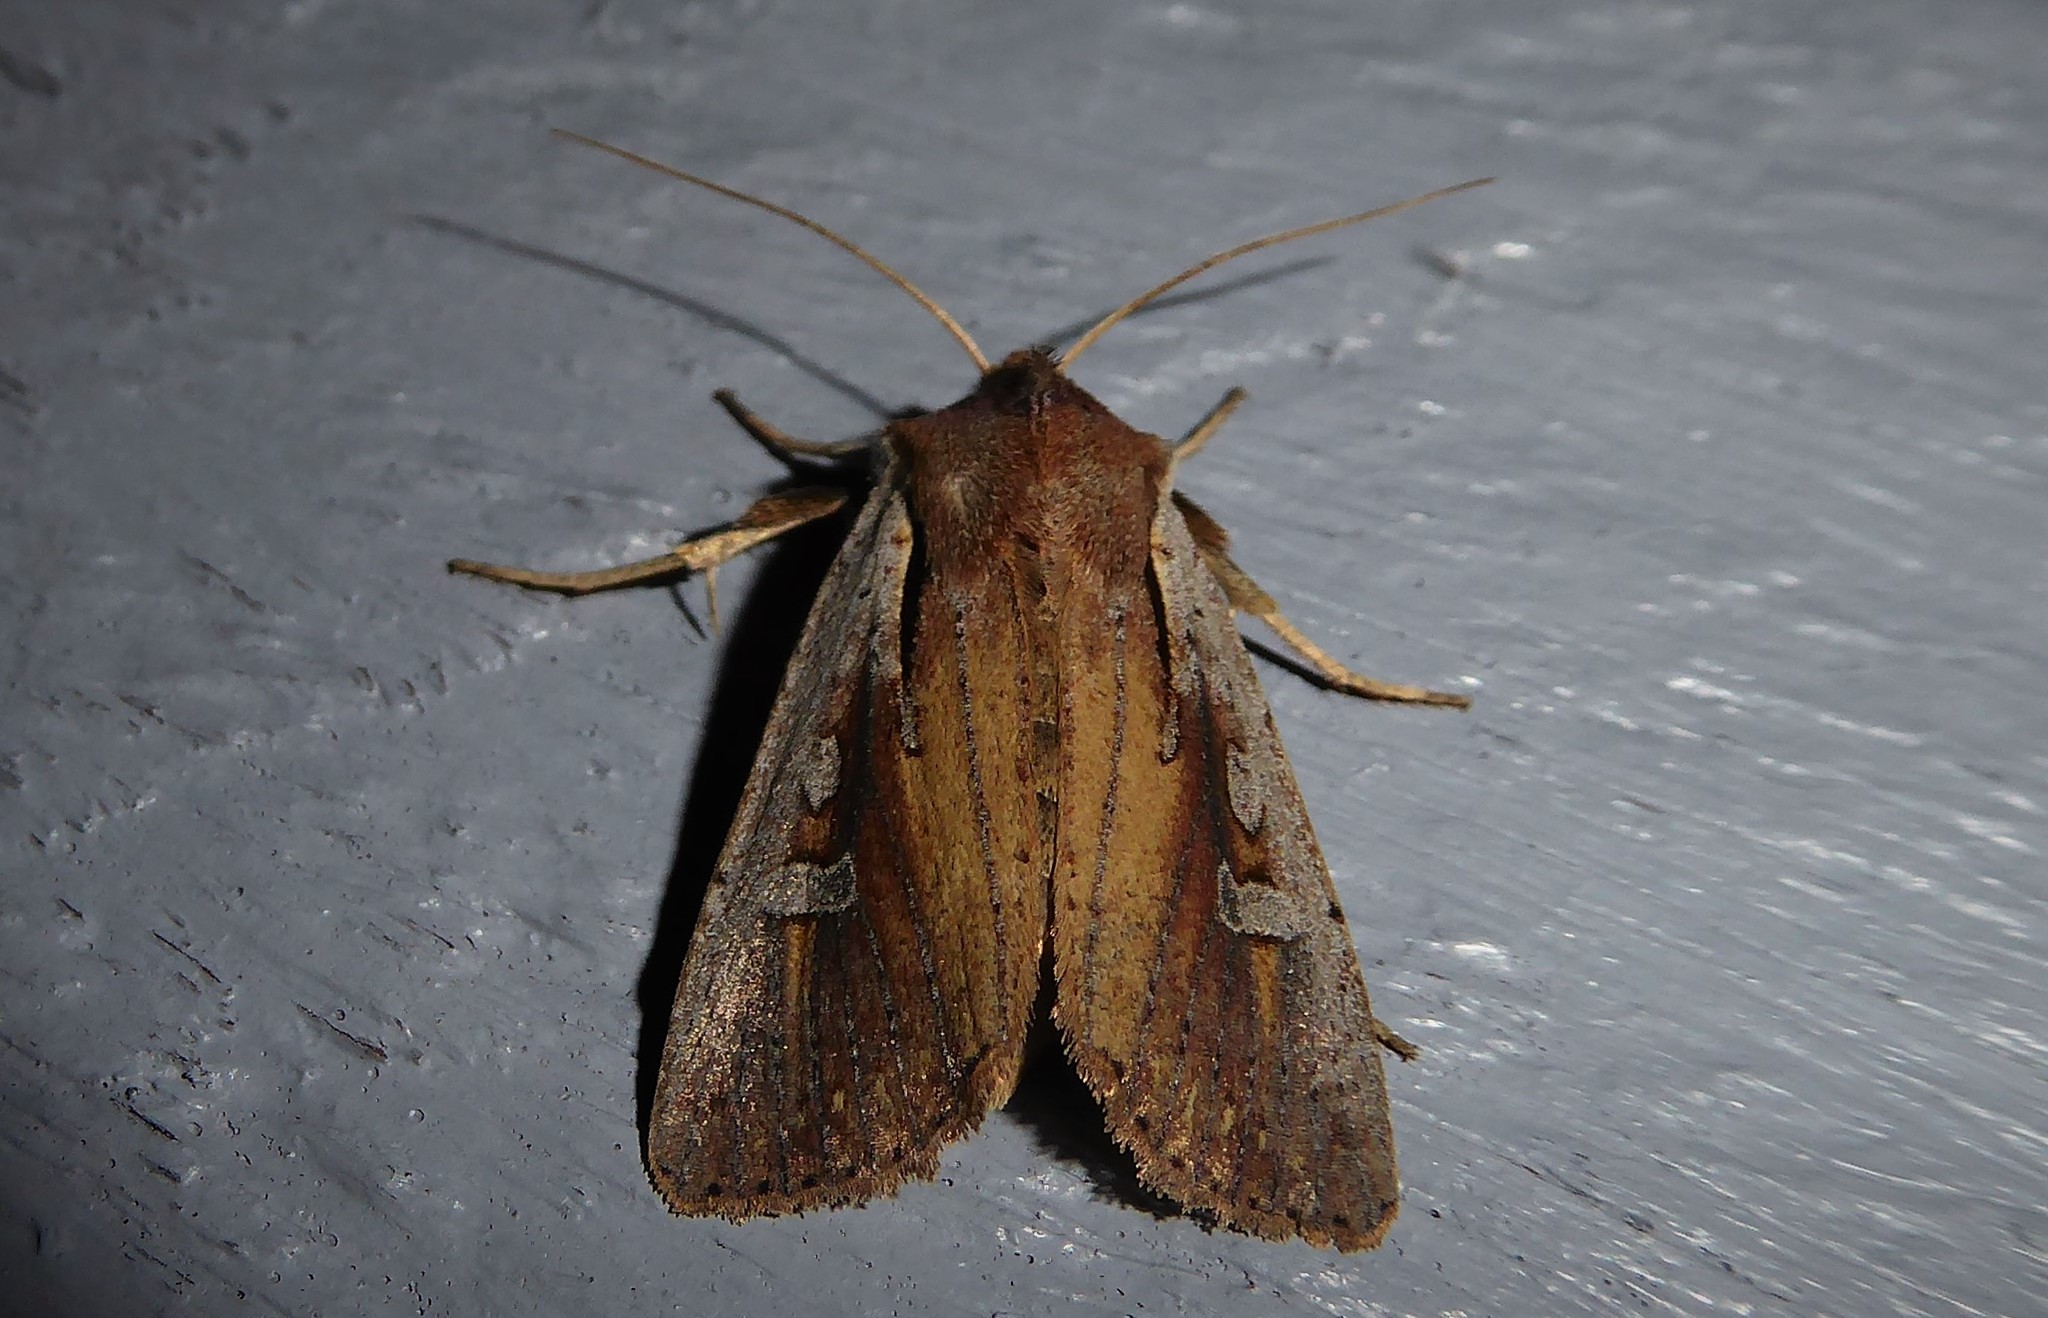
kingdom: Animalia
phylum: Arthropoda
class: Insecta
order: Lepidoptera
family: Noctuidae
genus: Ichneutica
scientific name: Ichneutica atristriga
